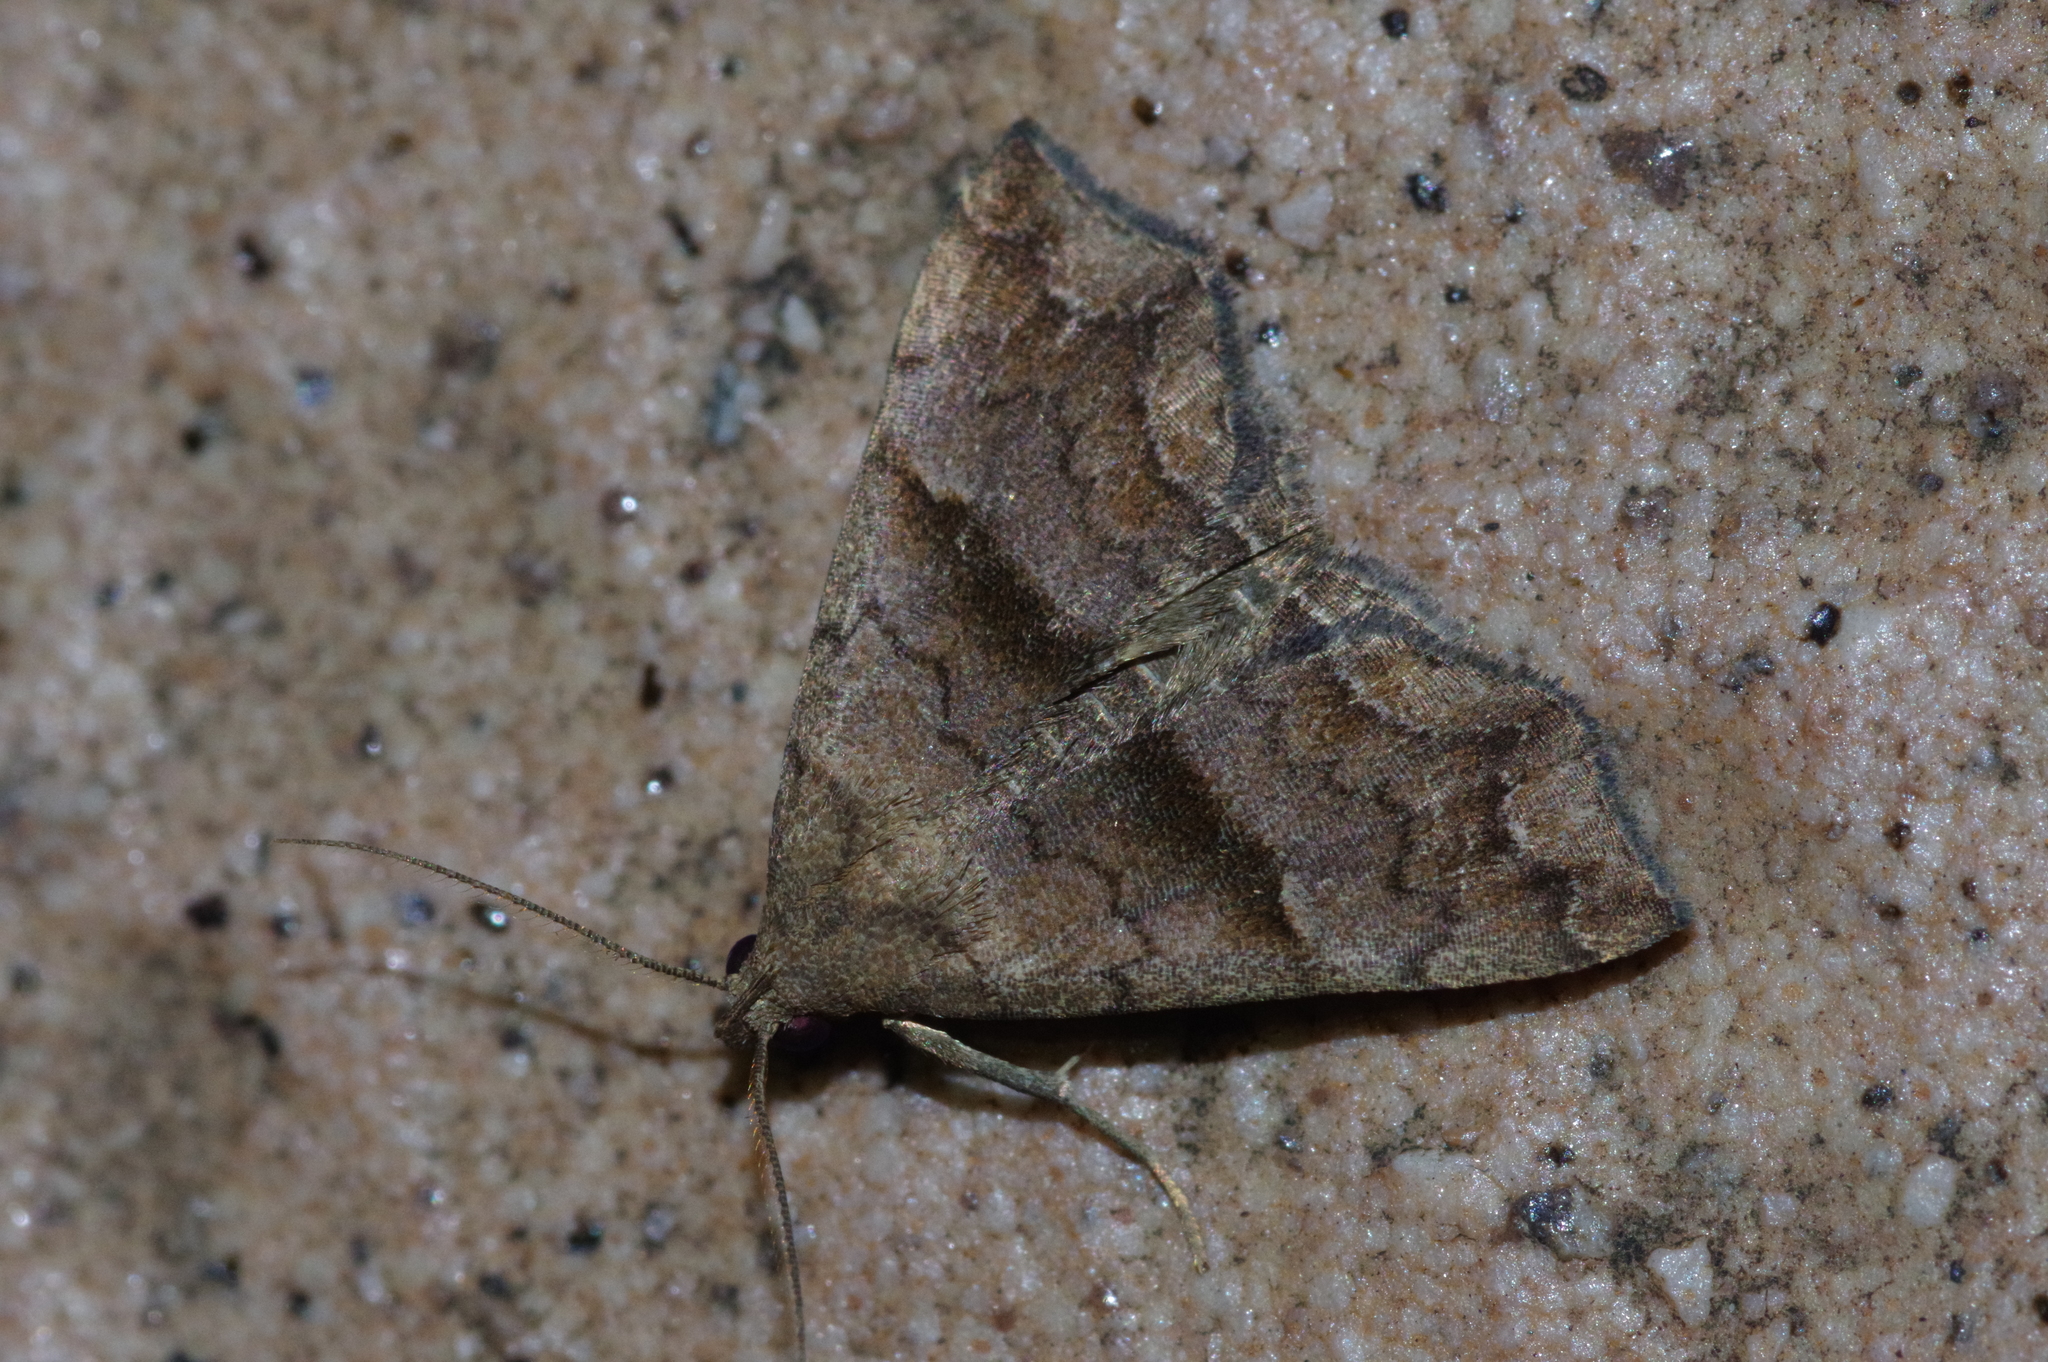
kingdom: Animalia
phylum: Arthropoda
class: Insecta
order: Lepidoptera
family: Erebidae
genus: Polypogon
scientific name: Polypogon Hipoepa fractalis
